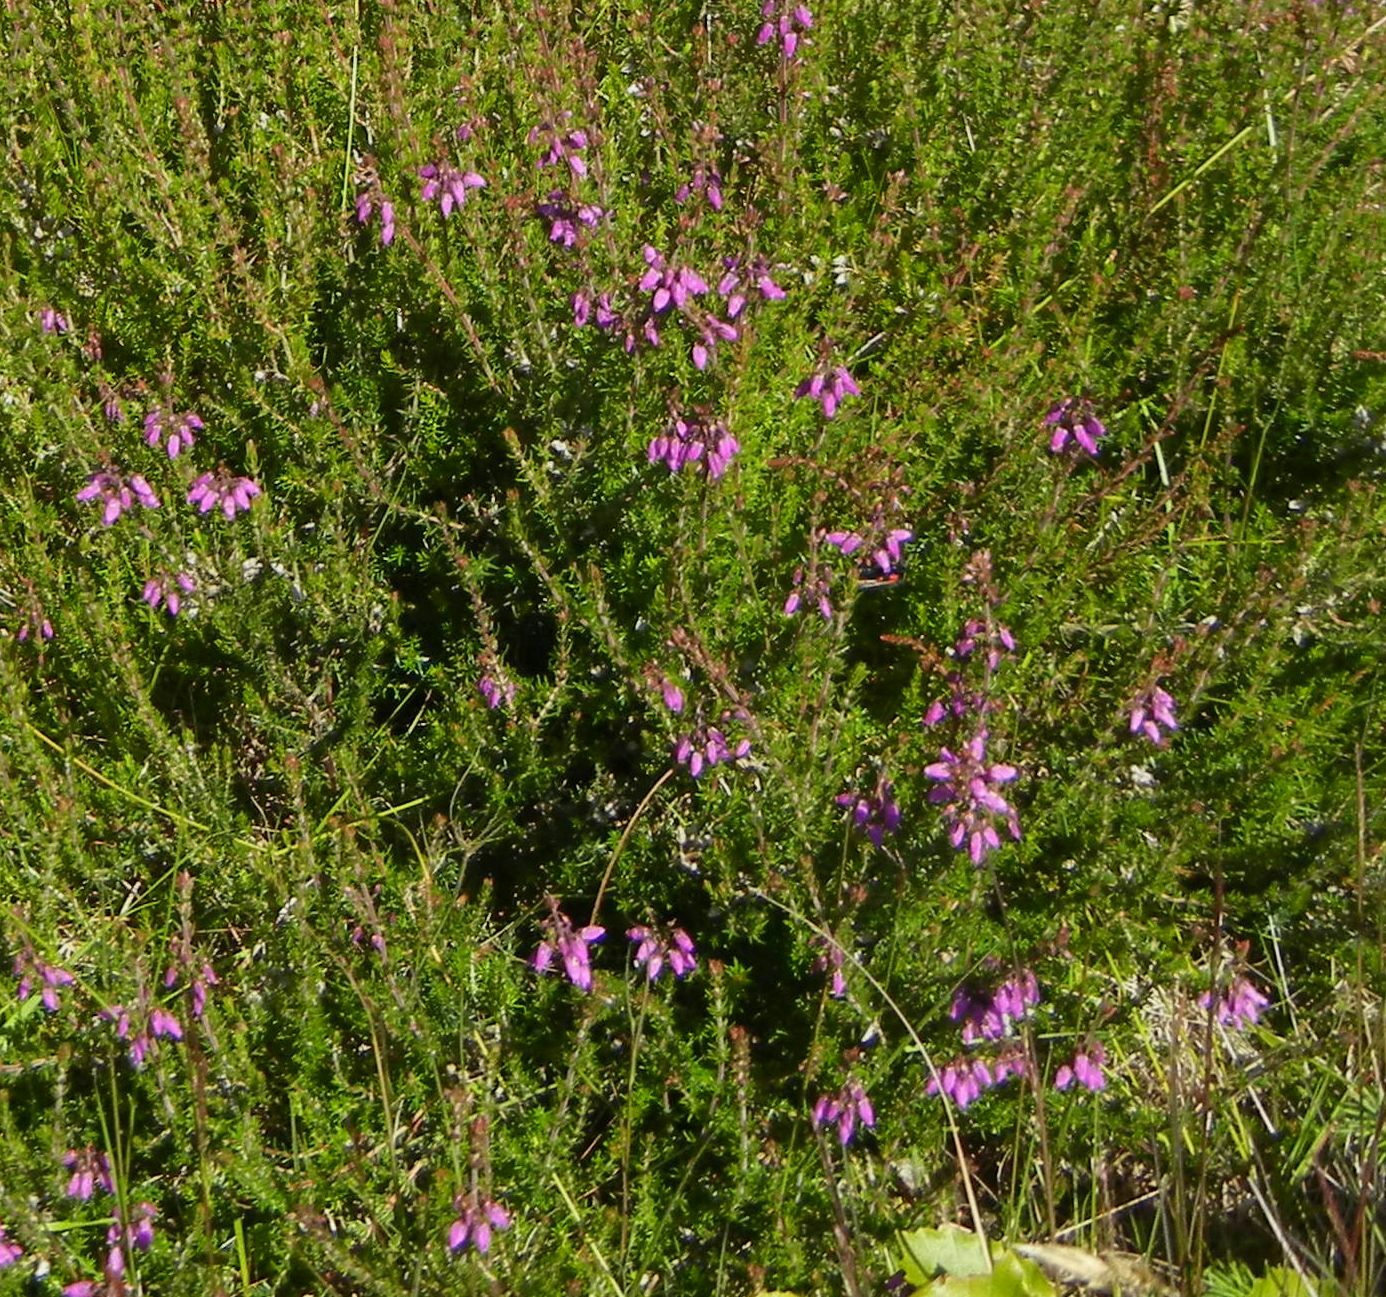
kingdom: Plantae
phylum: Tracheophyta
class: Magnoliopsida
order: Ericales
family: Ericaceae
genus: Erica
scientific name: Erica cinerea
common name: Bell heather
